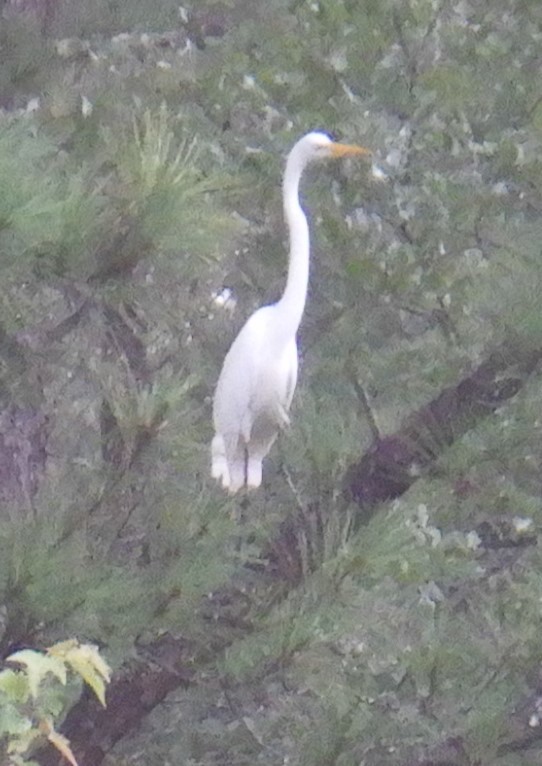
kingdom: Animalia
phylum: Chordata
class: Aves
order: Pelecaniformes
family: Ardeidae
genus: Ardea
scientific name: Ardea alba
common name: Great egret
